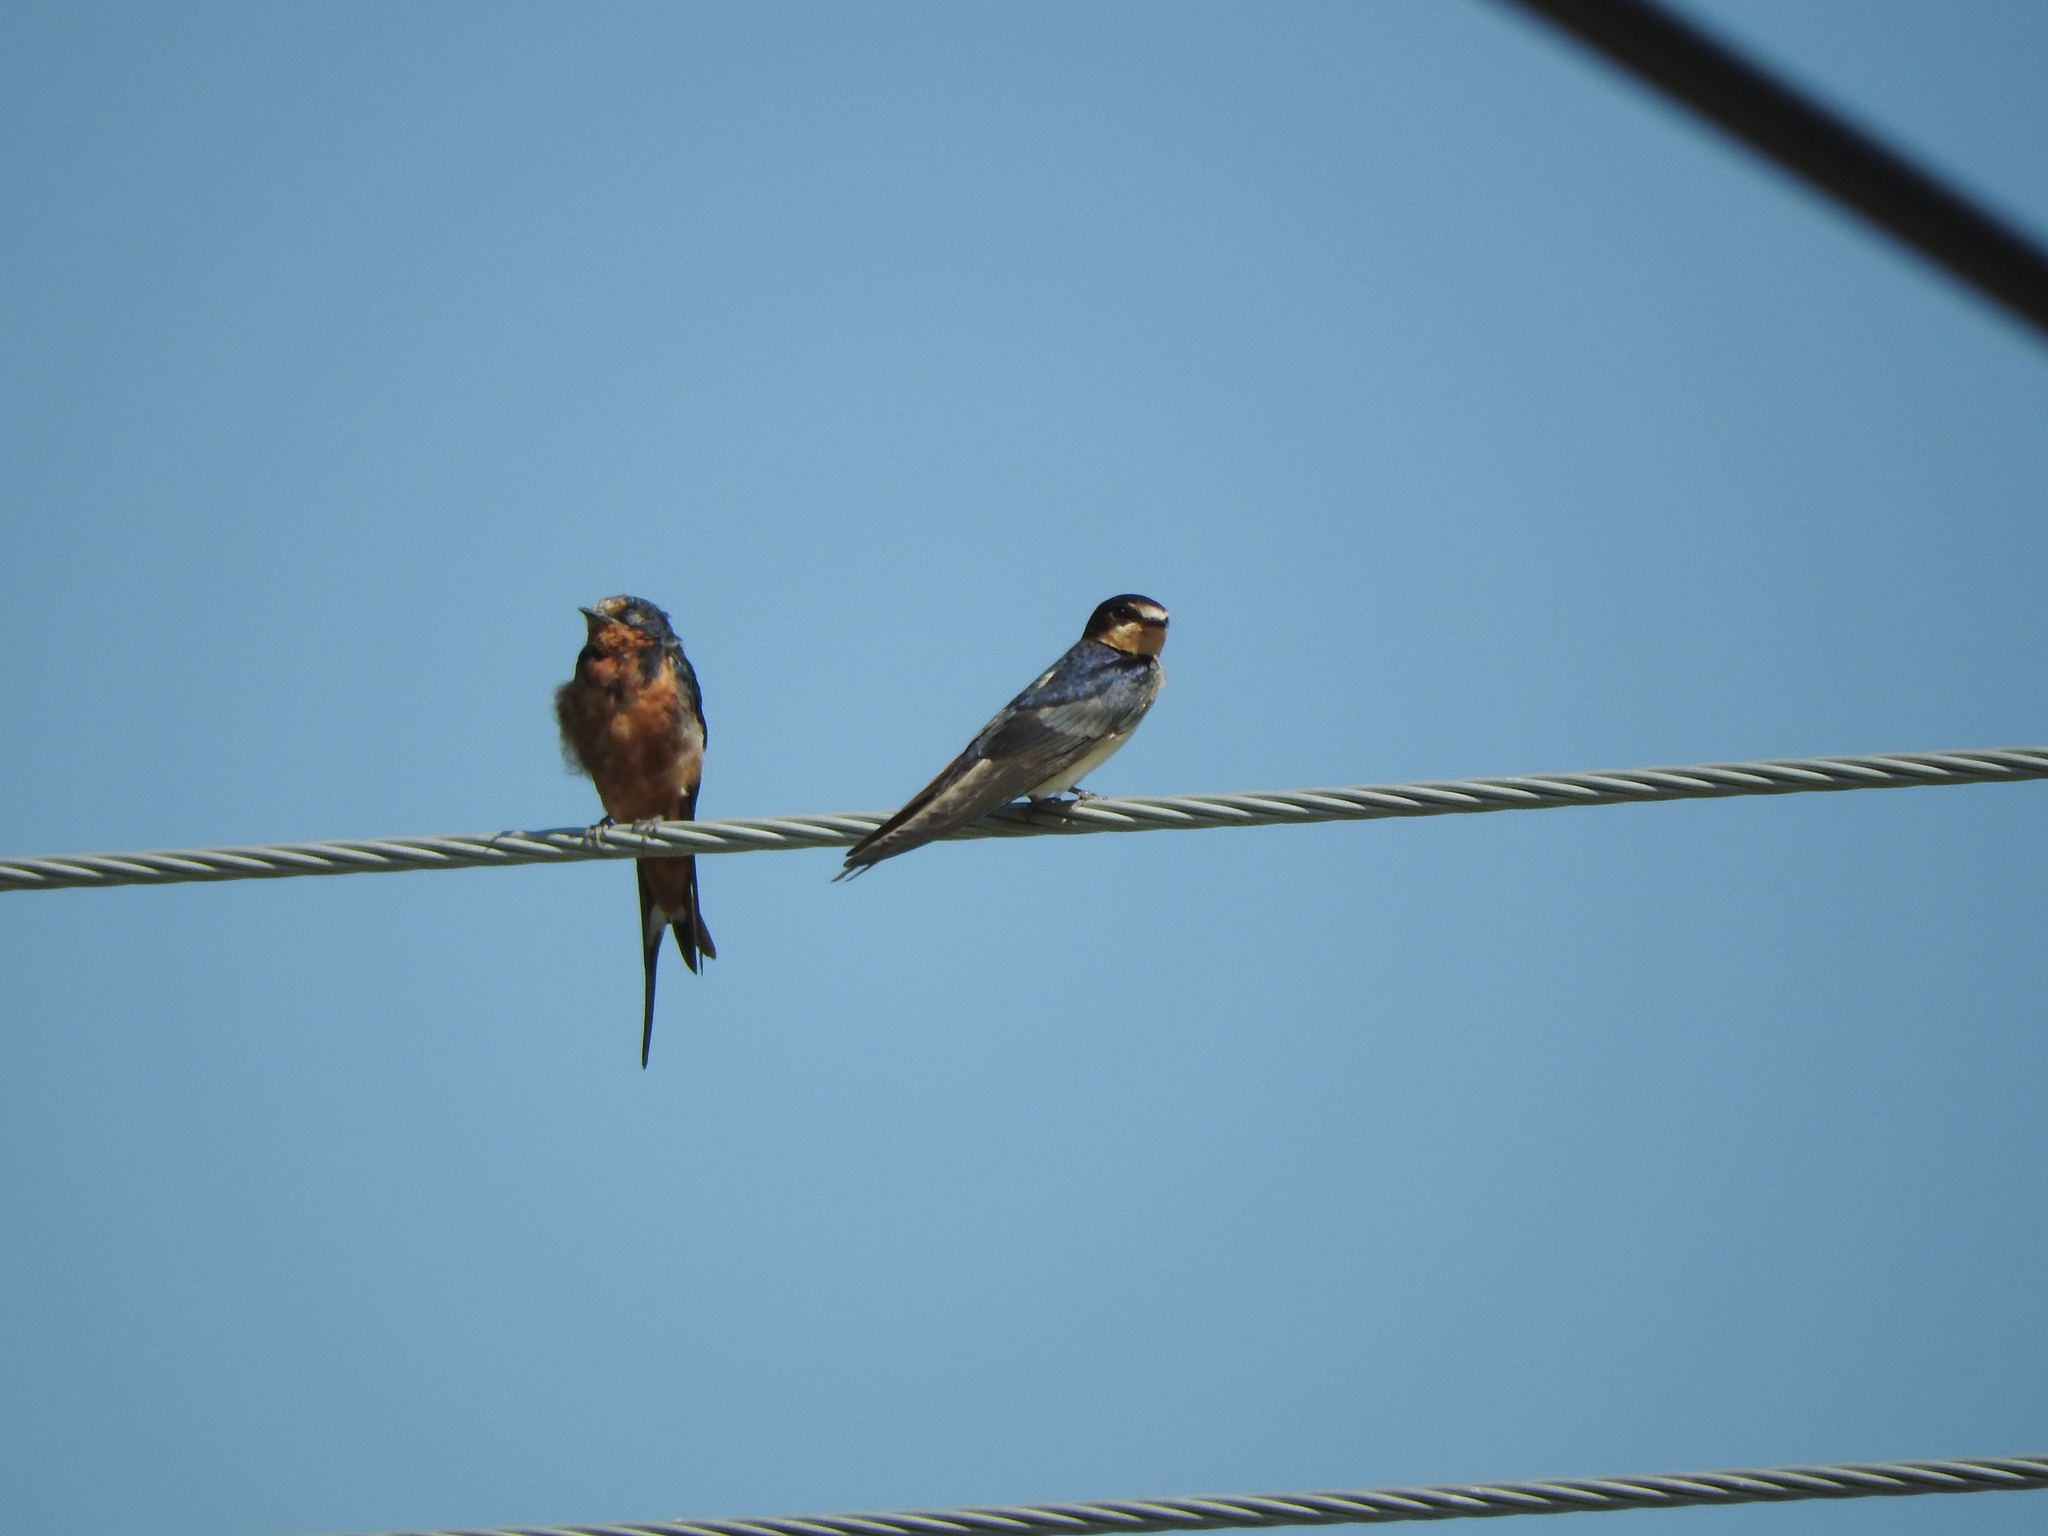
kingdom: Animalia
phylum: Chordata
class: Aves
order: Passeriformes
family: Hirundinidae
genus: Hirundo
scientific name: Hirundo rustica
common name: Barn swallow
